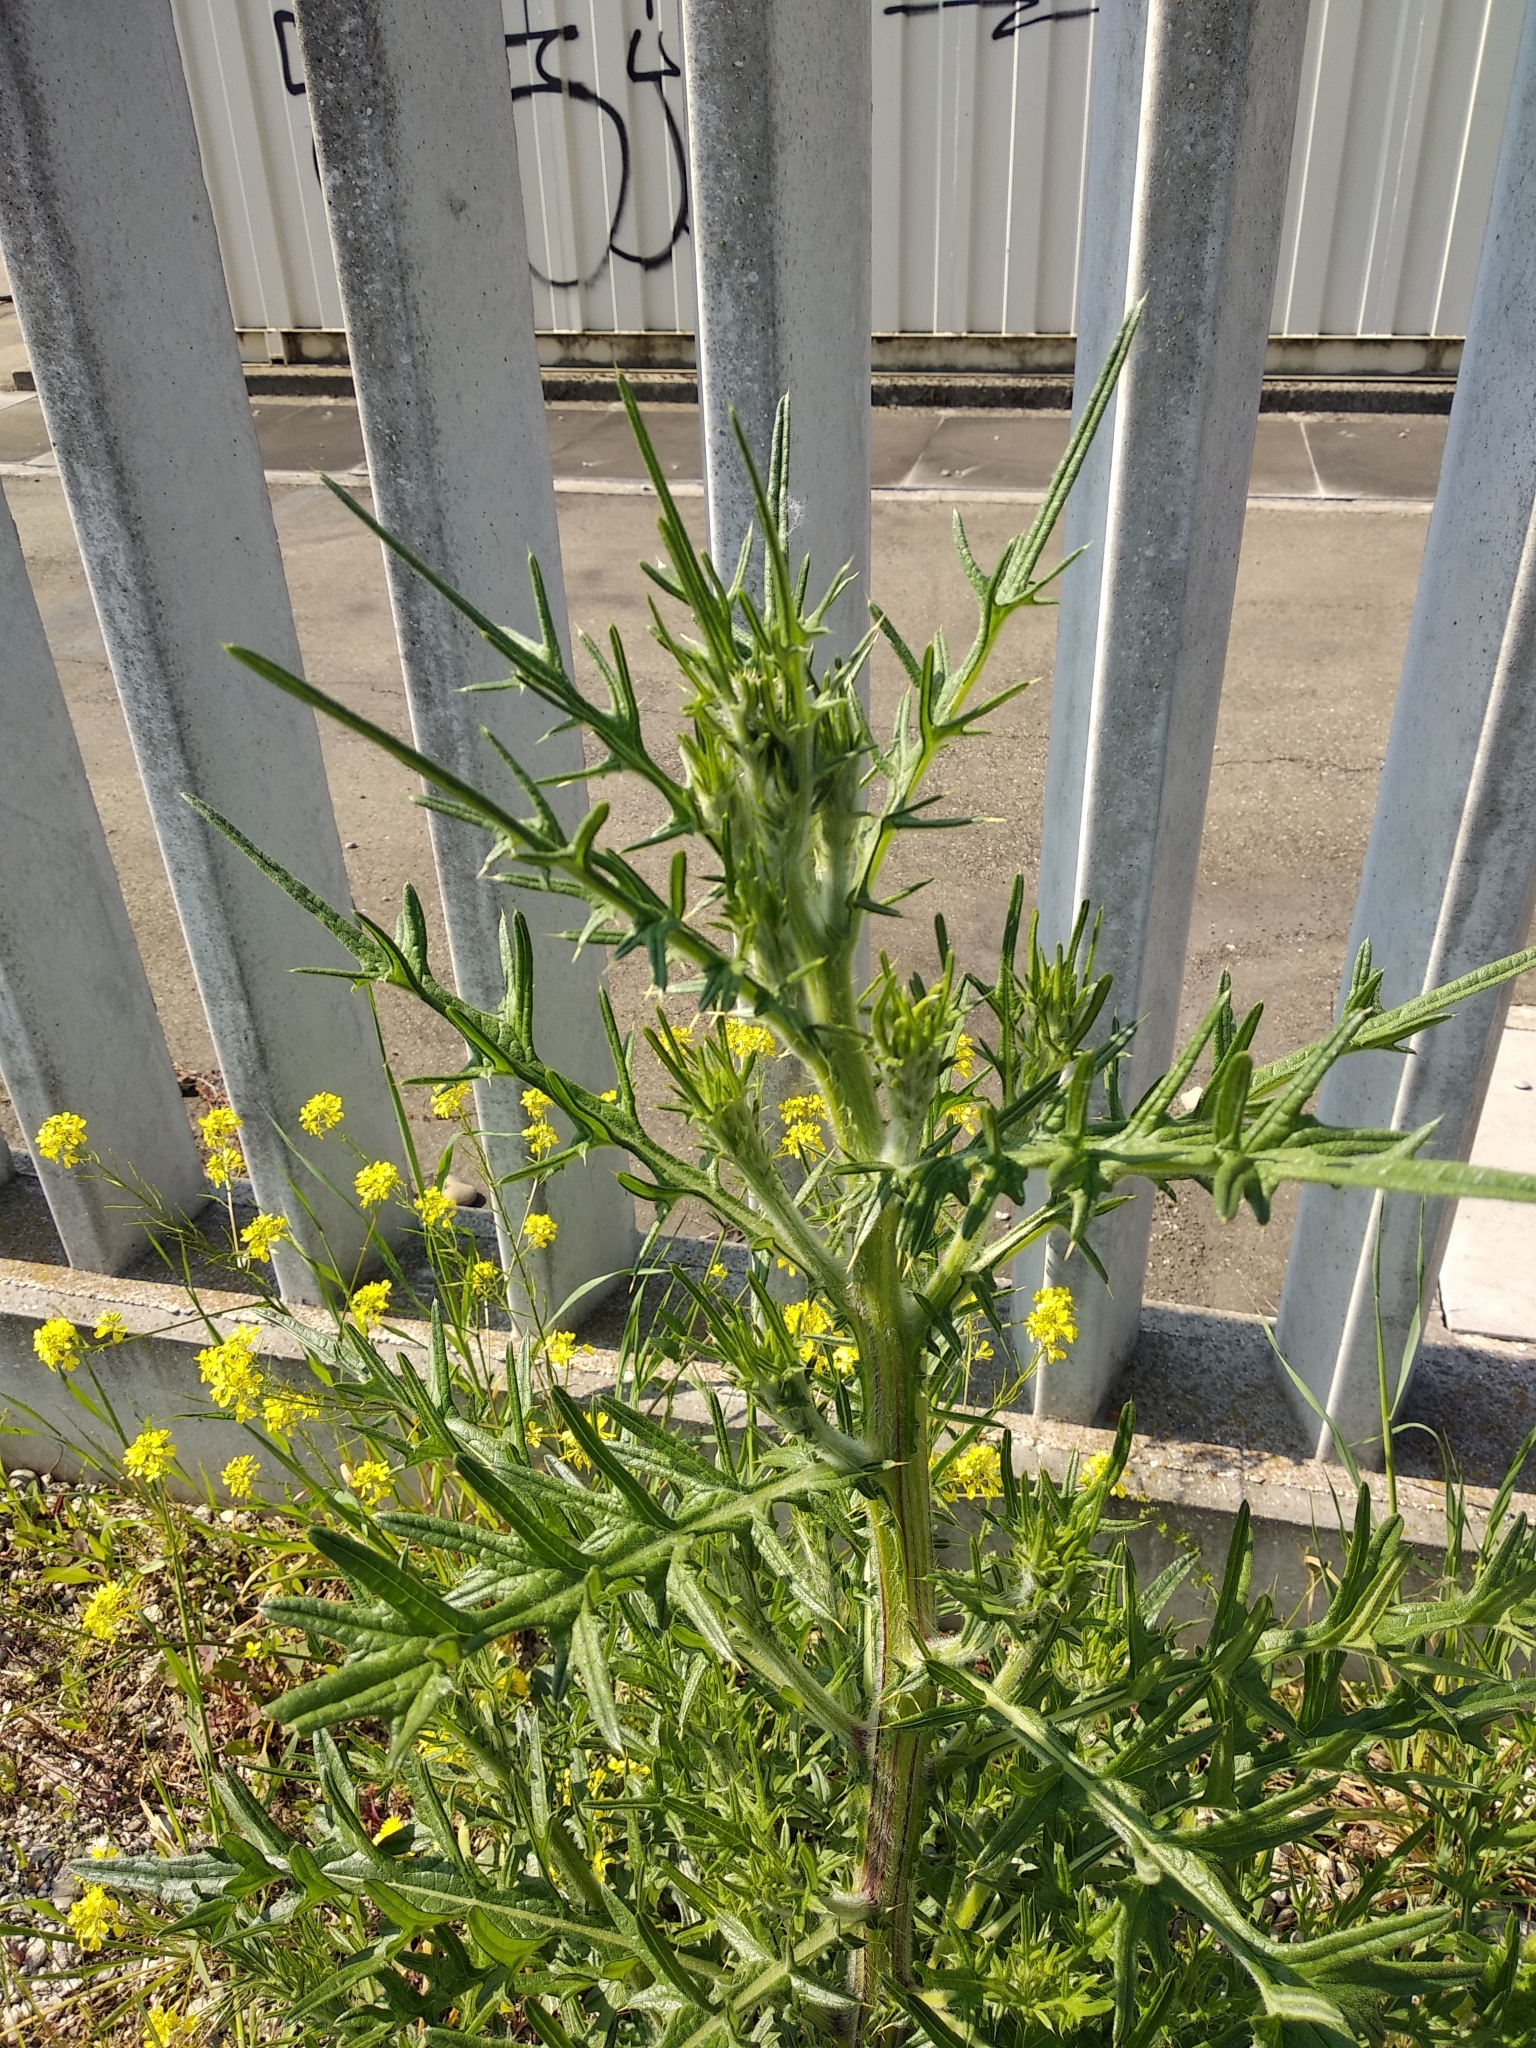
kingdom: Plantae
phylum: Tracheophyta
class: Magnoliopsida
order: Asterales
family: Asteraceae
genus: Cirsium
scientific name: Cirsium vulgare
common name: Bull thistle
